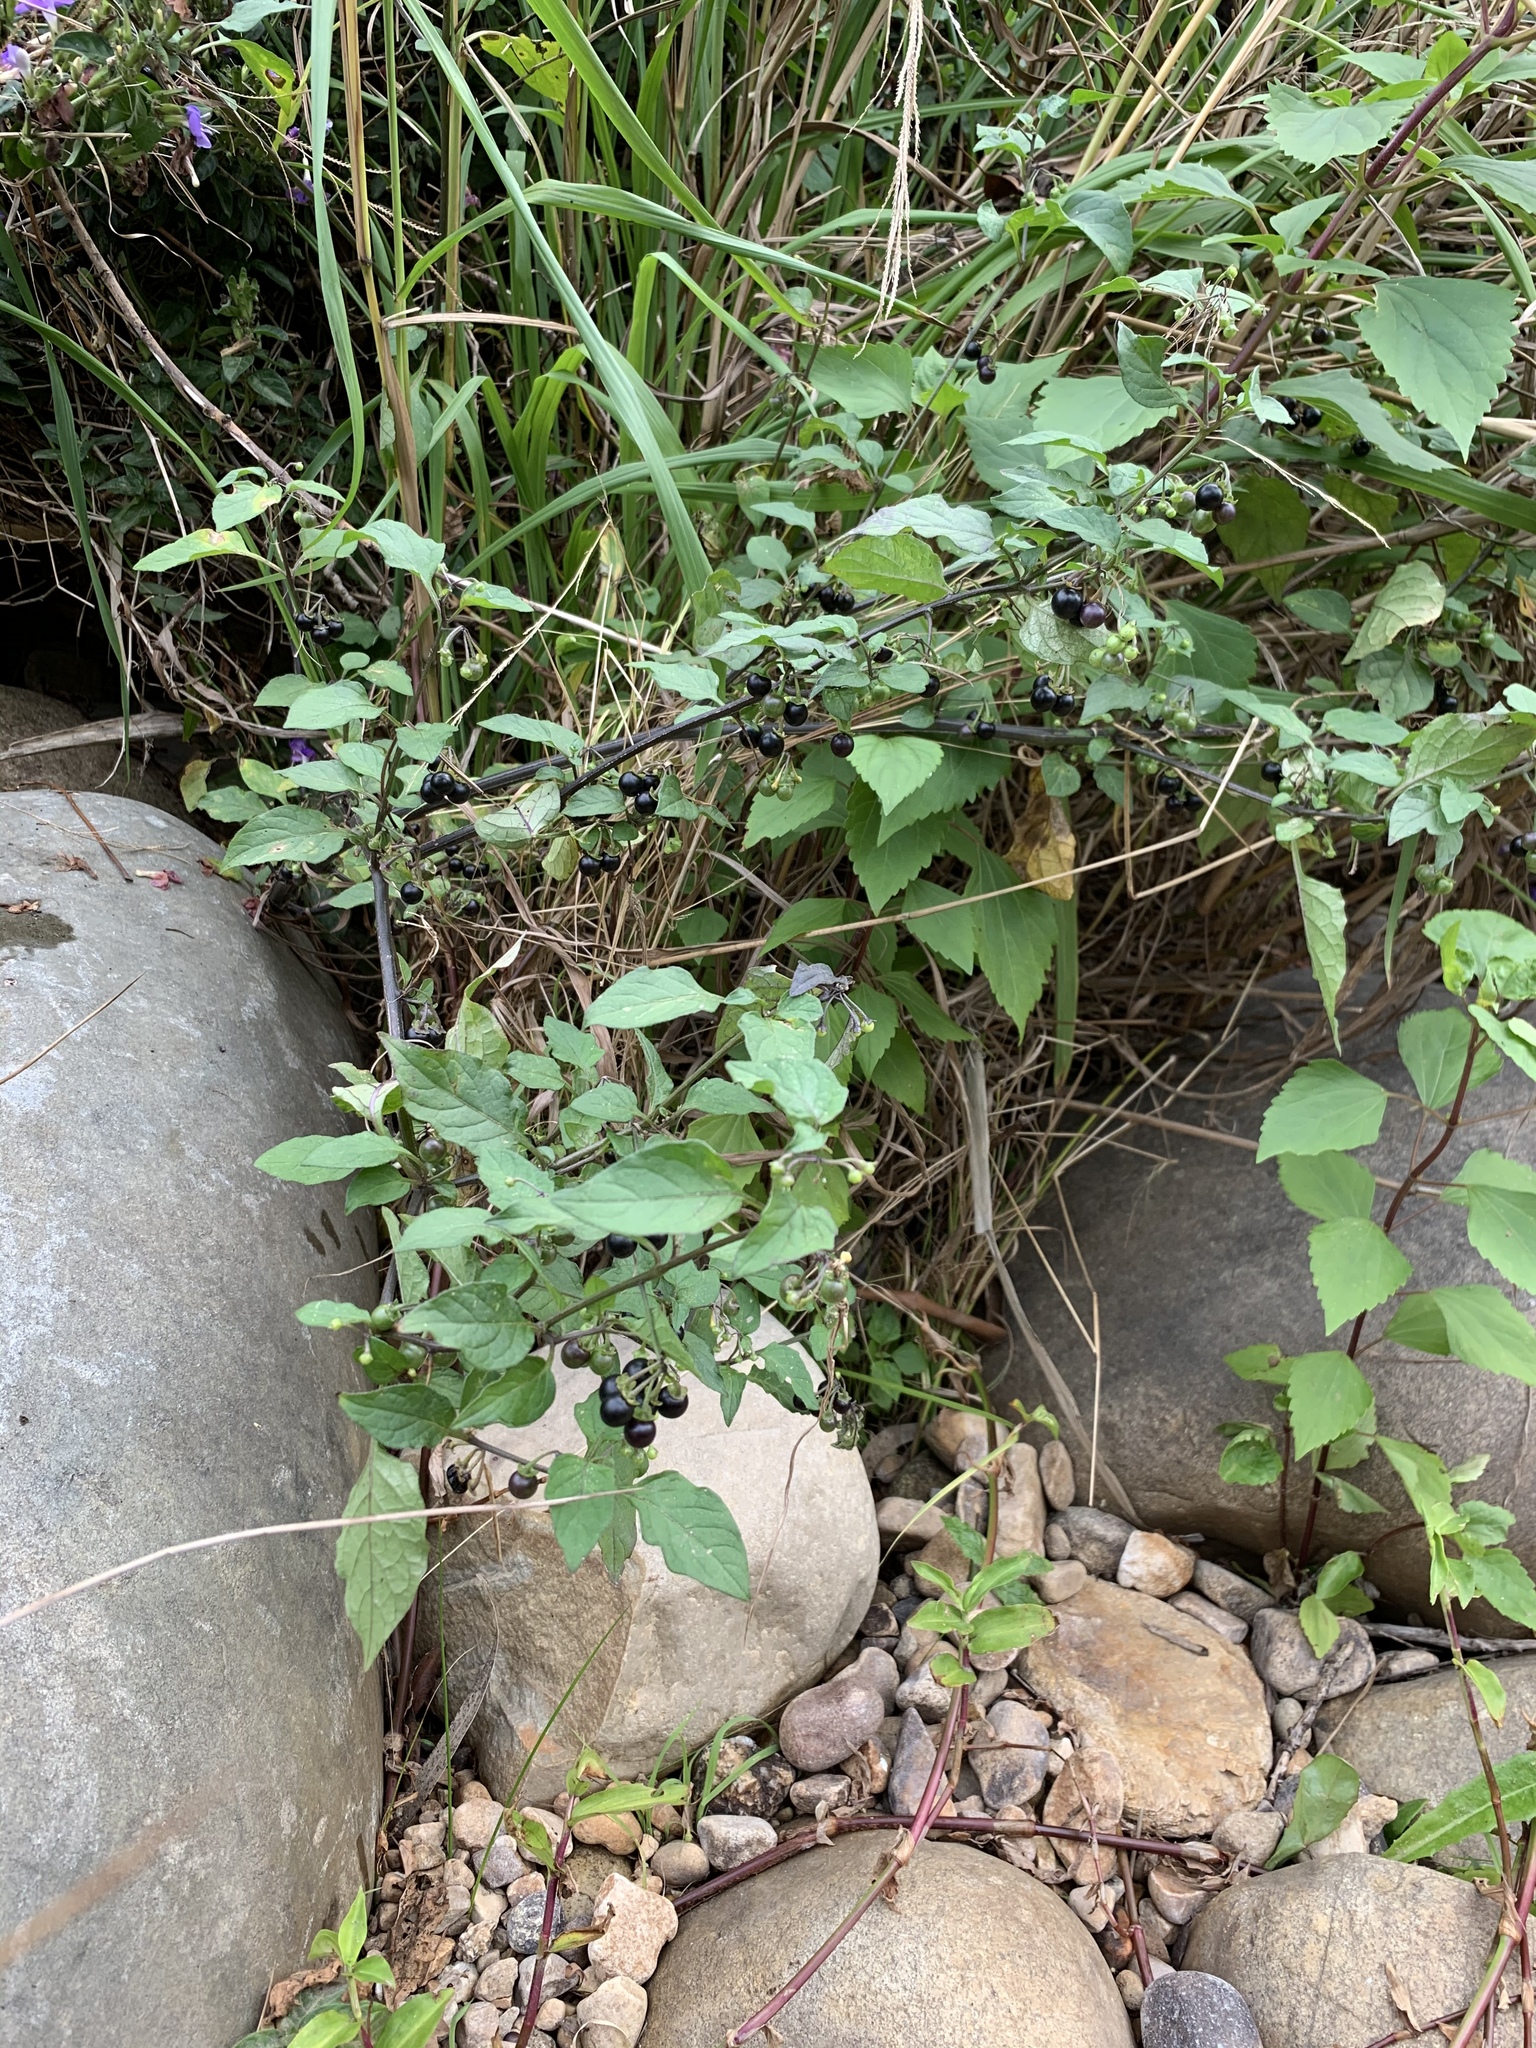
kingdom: Plantae
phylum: Tracheophyta
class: Magnoliopsida
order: Solanales
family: Solanaceae
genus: Solanum
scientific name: Solanum nigrum
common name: Black nightshade
